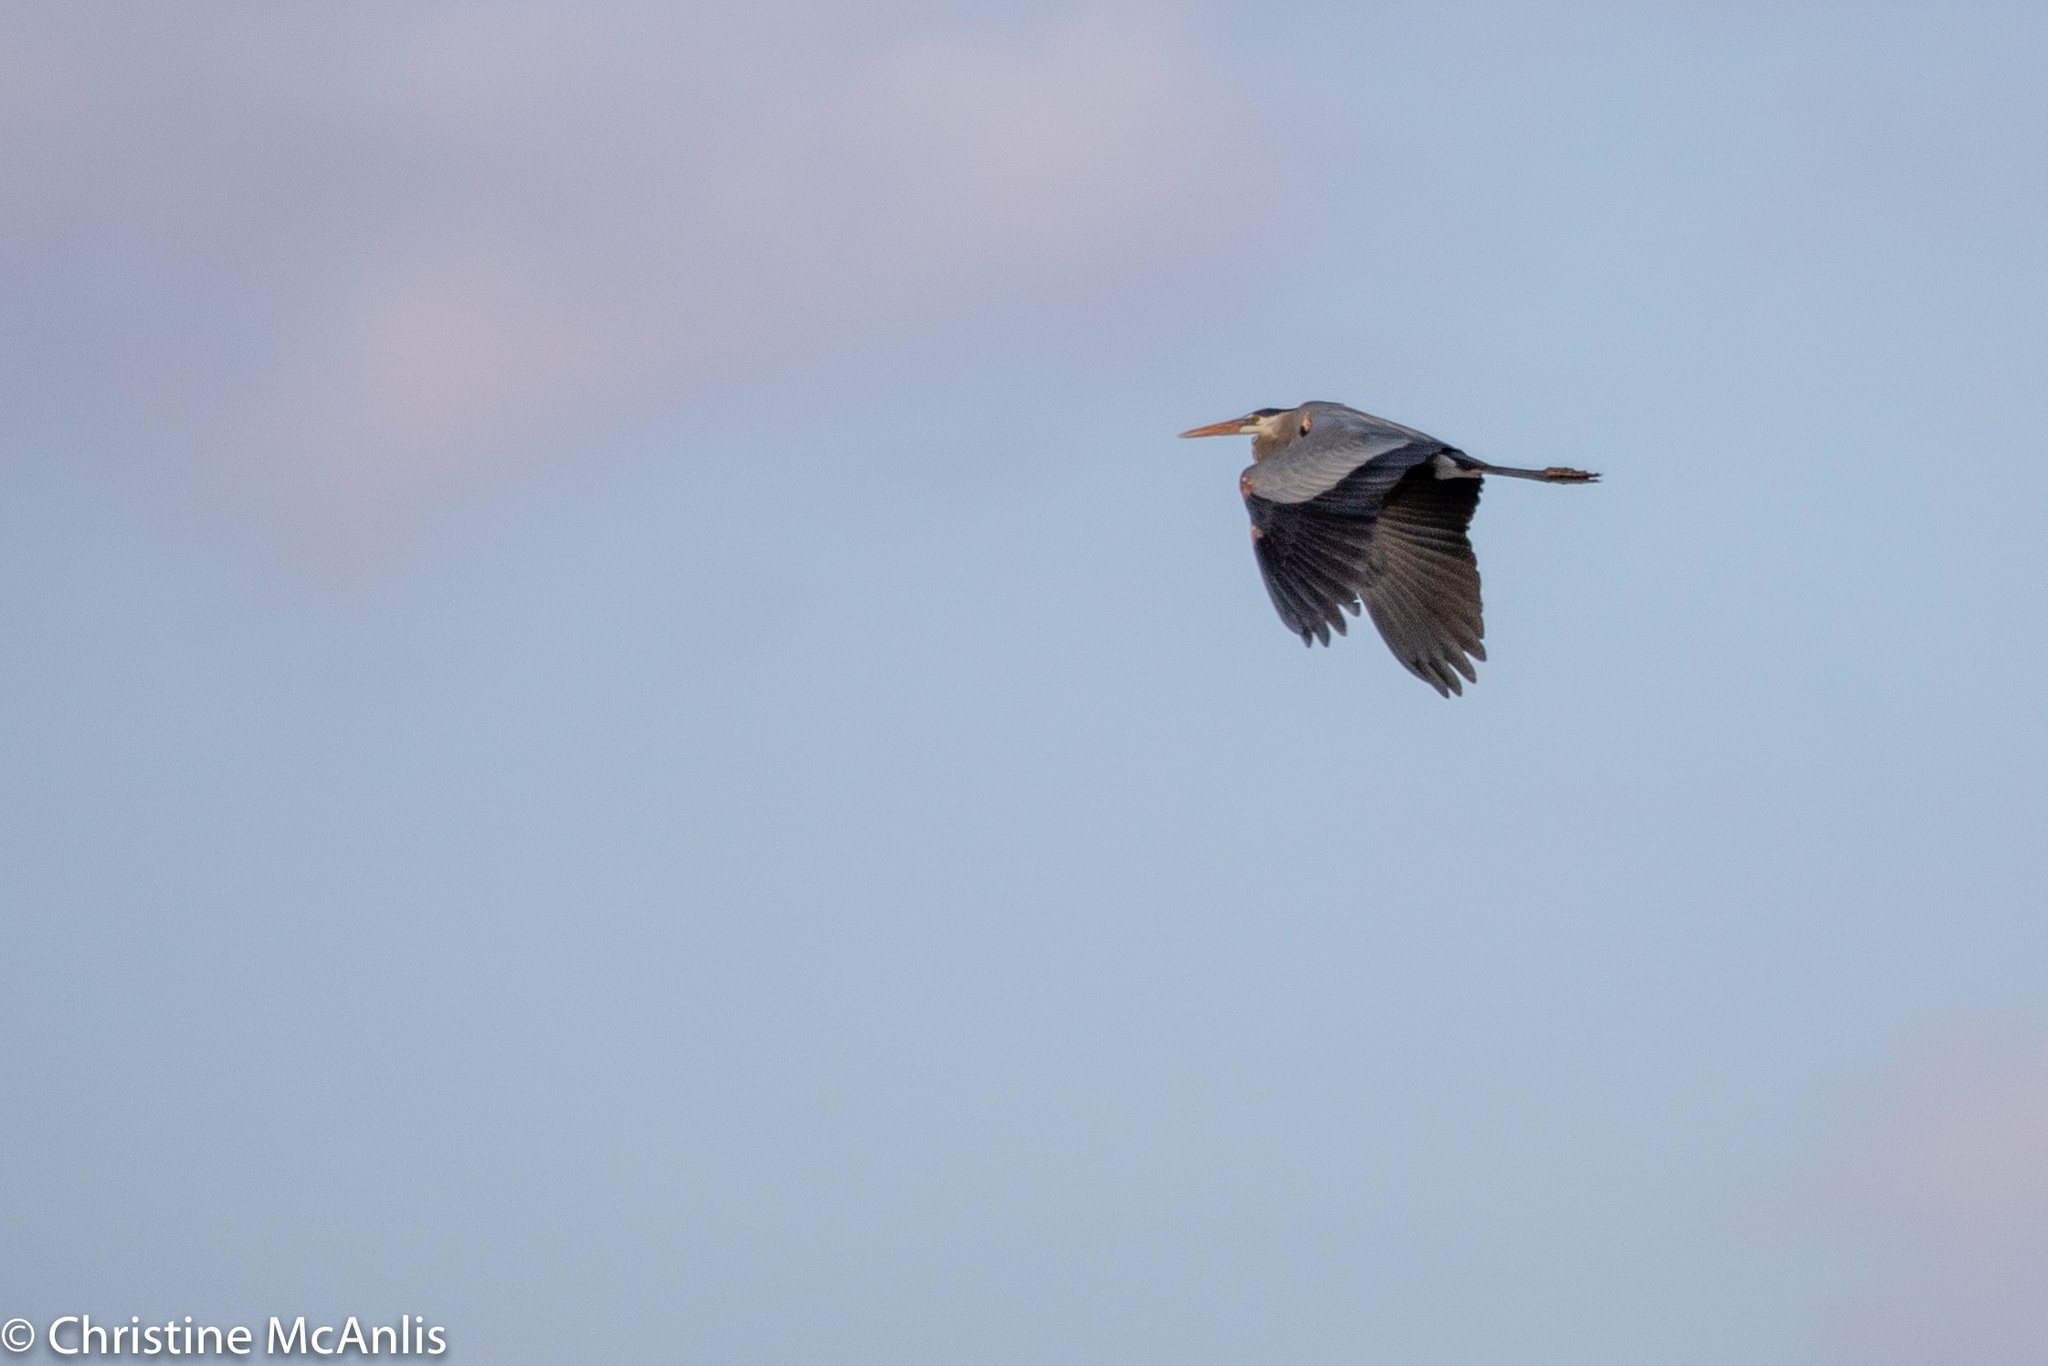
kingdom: Animalia
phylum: Chordata
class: Aves
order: Pelecaniformes
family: Ardeidae
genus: Ardea
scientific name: Ardea herodias
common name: Great blue heron
